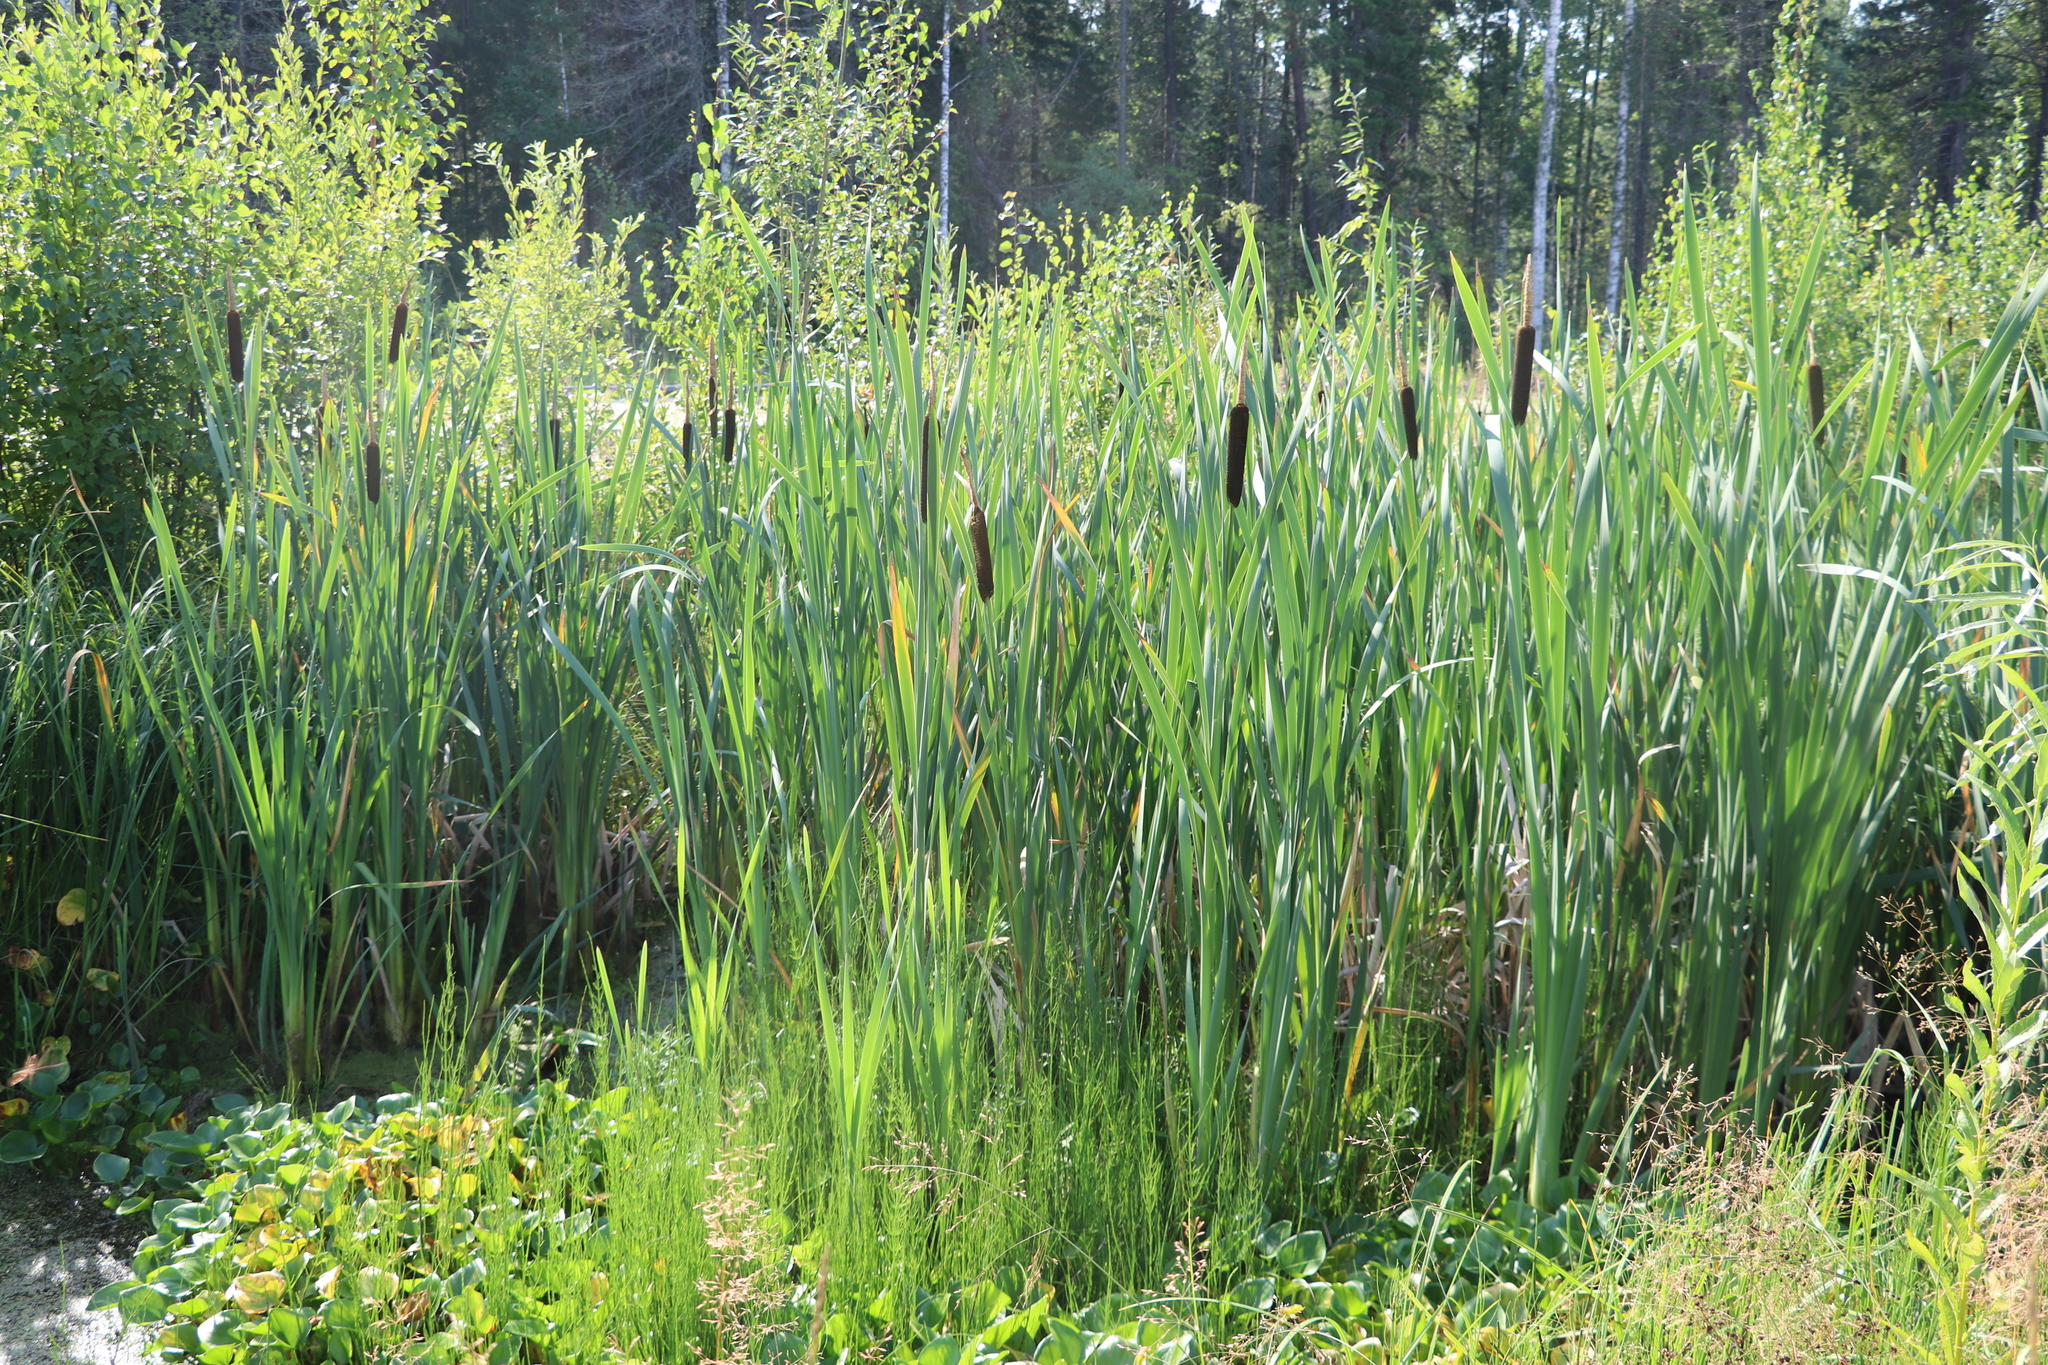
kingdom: Plantae
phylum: Tracheophyta
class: Liliopsida
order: Poales
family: Typhaceae
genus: Typha
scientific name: Typha latifolia
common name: Broadleaf cattail
